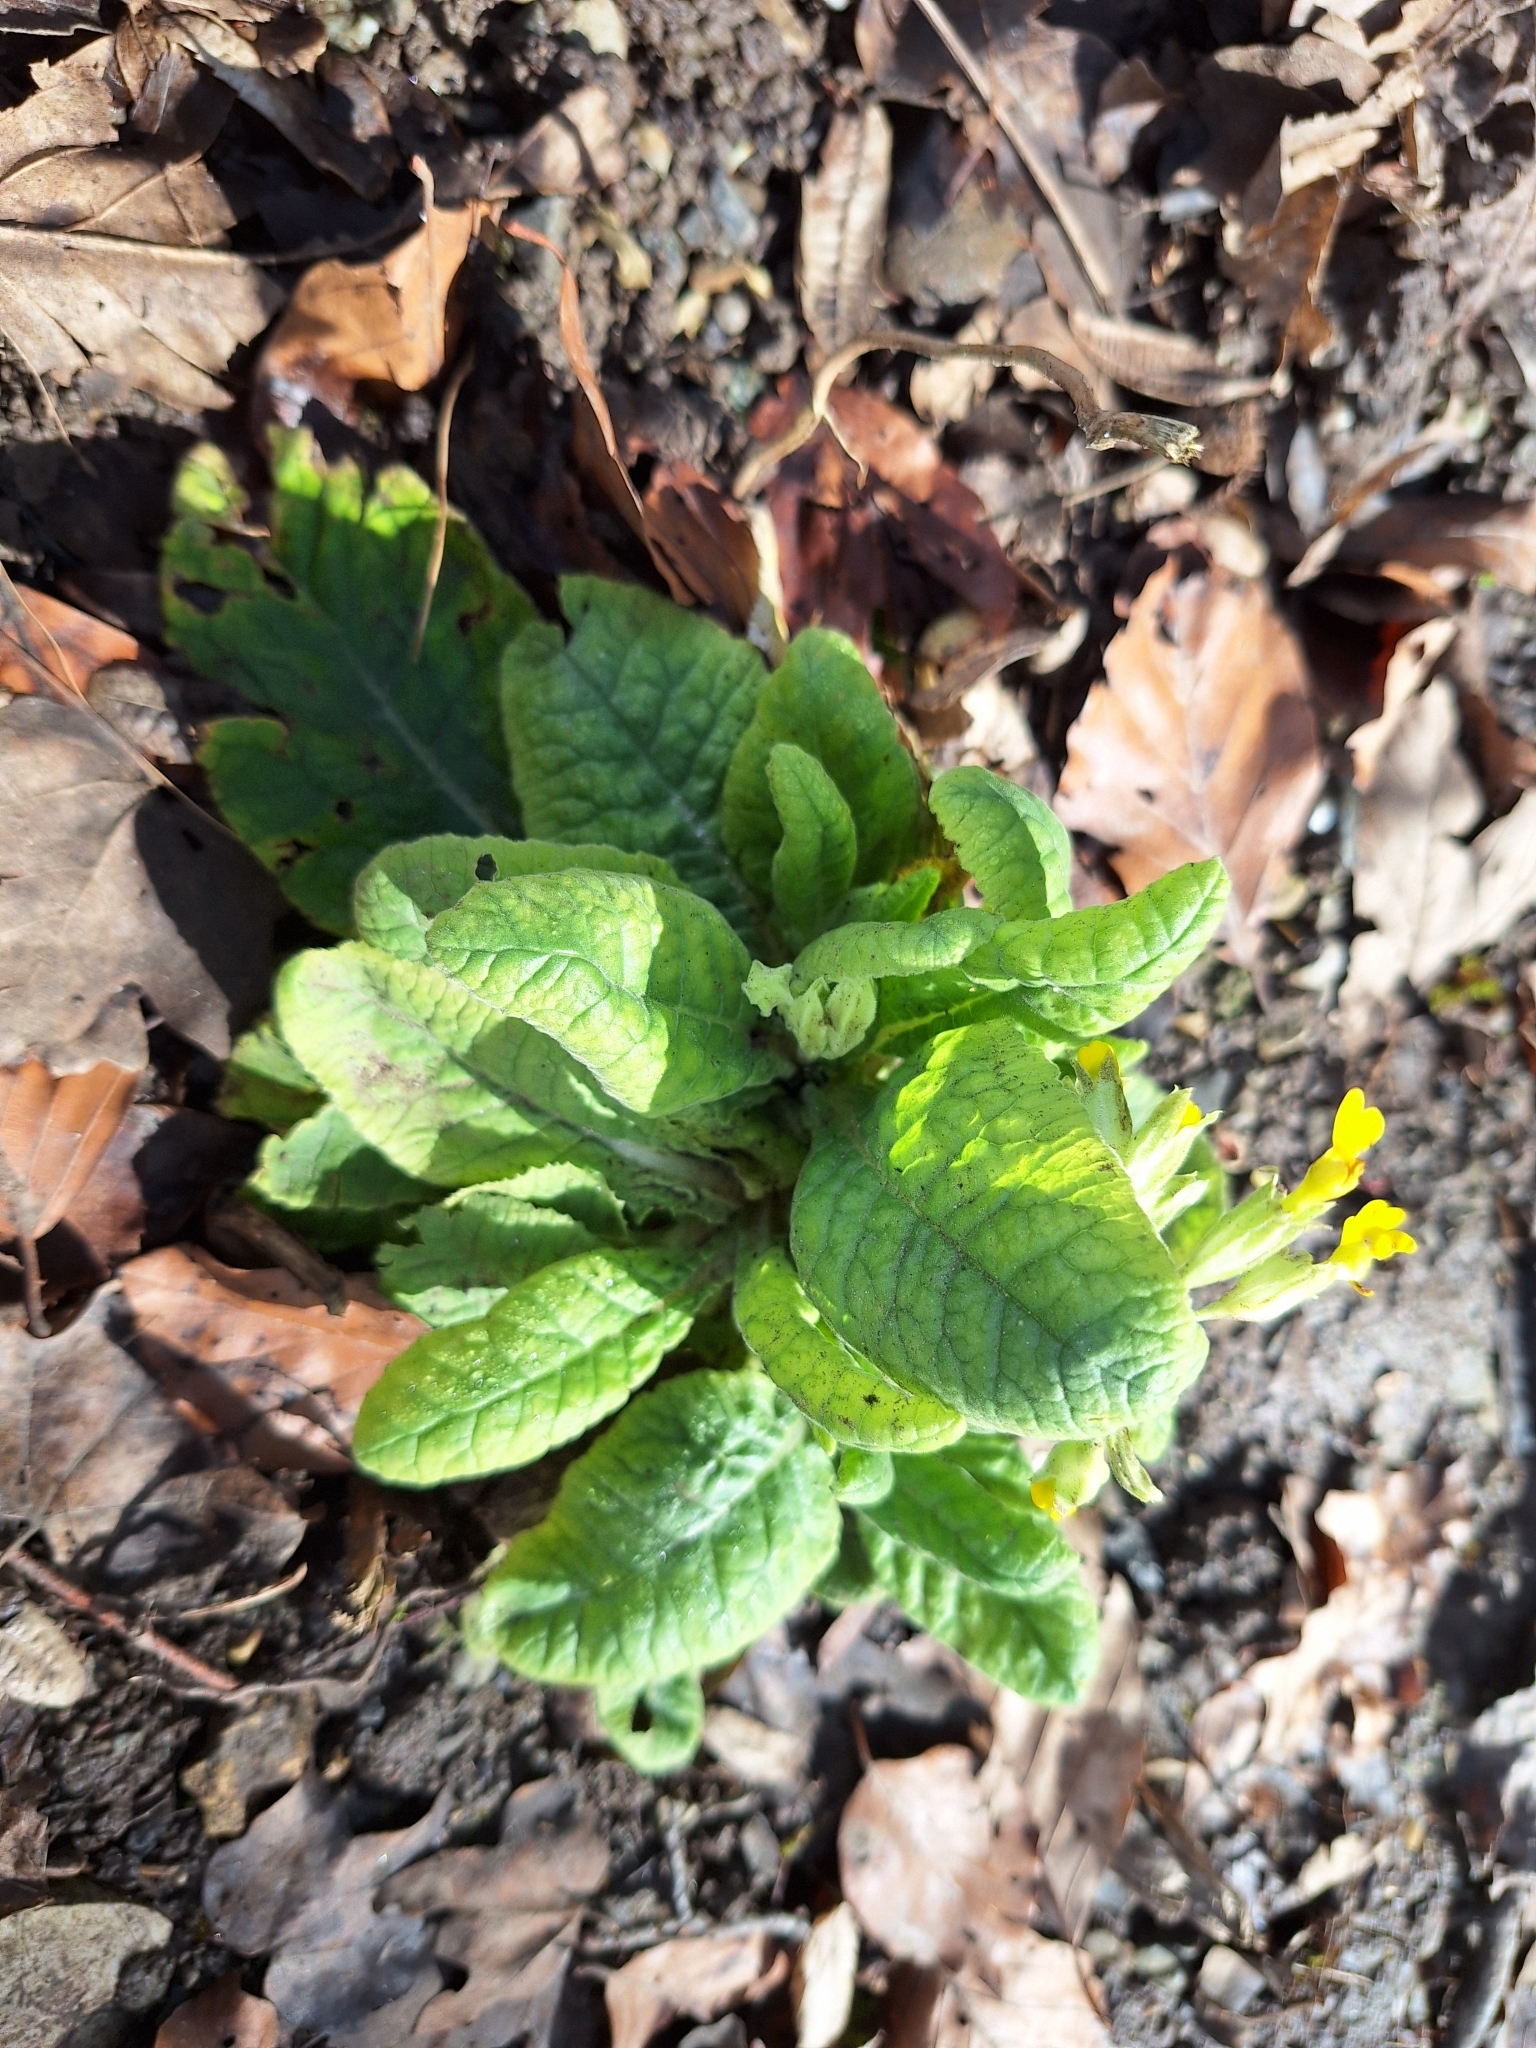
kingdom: Plantae
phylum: Tracheophyta
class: Magnoliopsida
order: Ericales
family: Primulaceae
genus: Primula
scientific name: Primula veris
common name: Cowslip
